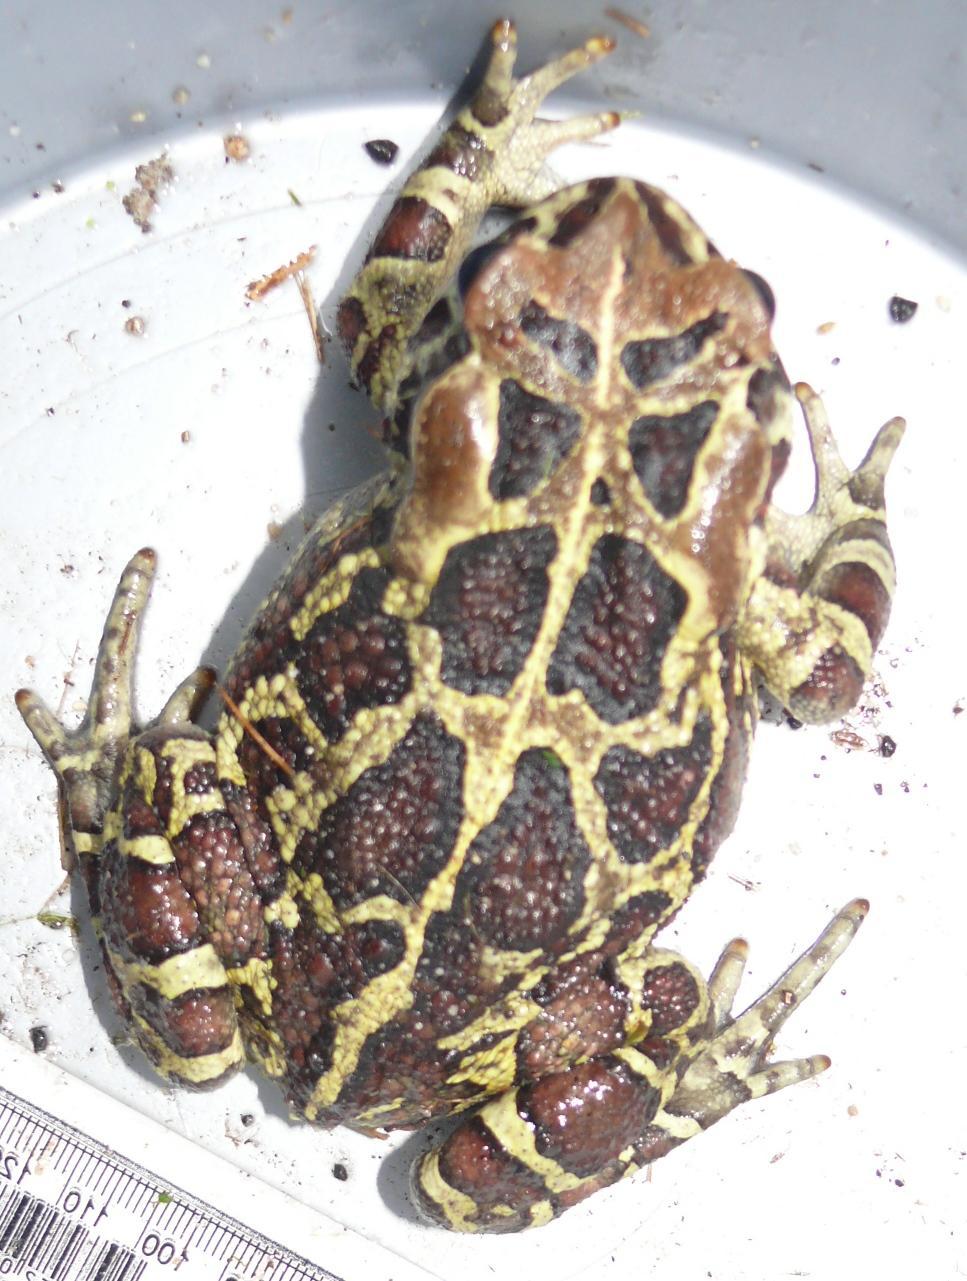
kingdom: Animalia
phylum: Chordata
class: Amphibia
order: Anura
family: Bufonidae
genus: Sclerophrys
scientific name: Sclerophrys pantherina
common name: Panther toad
